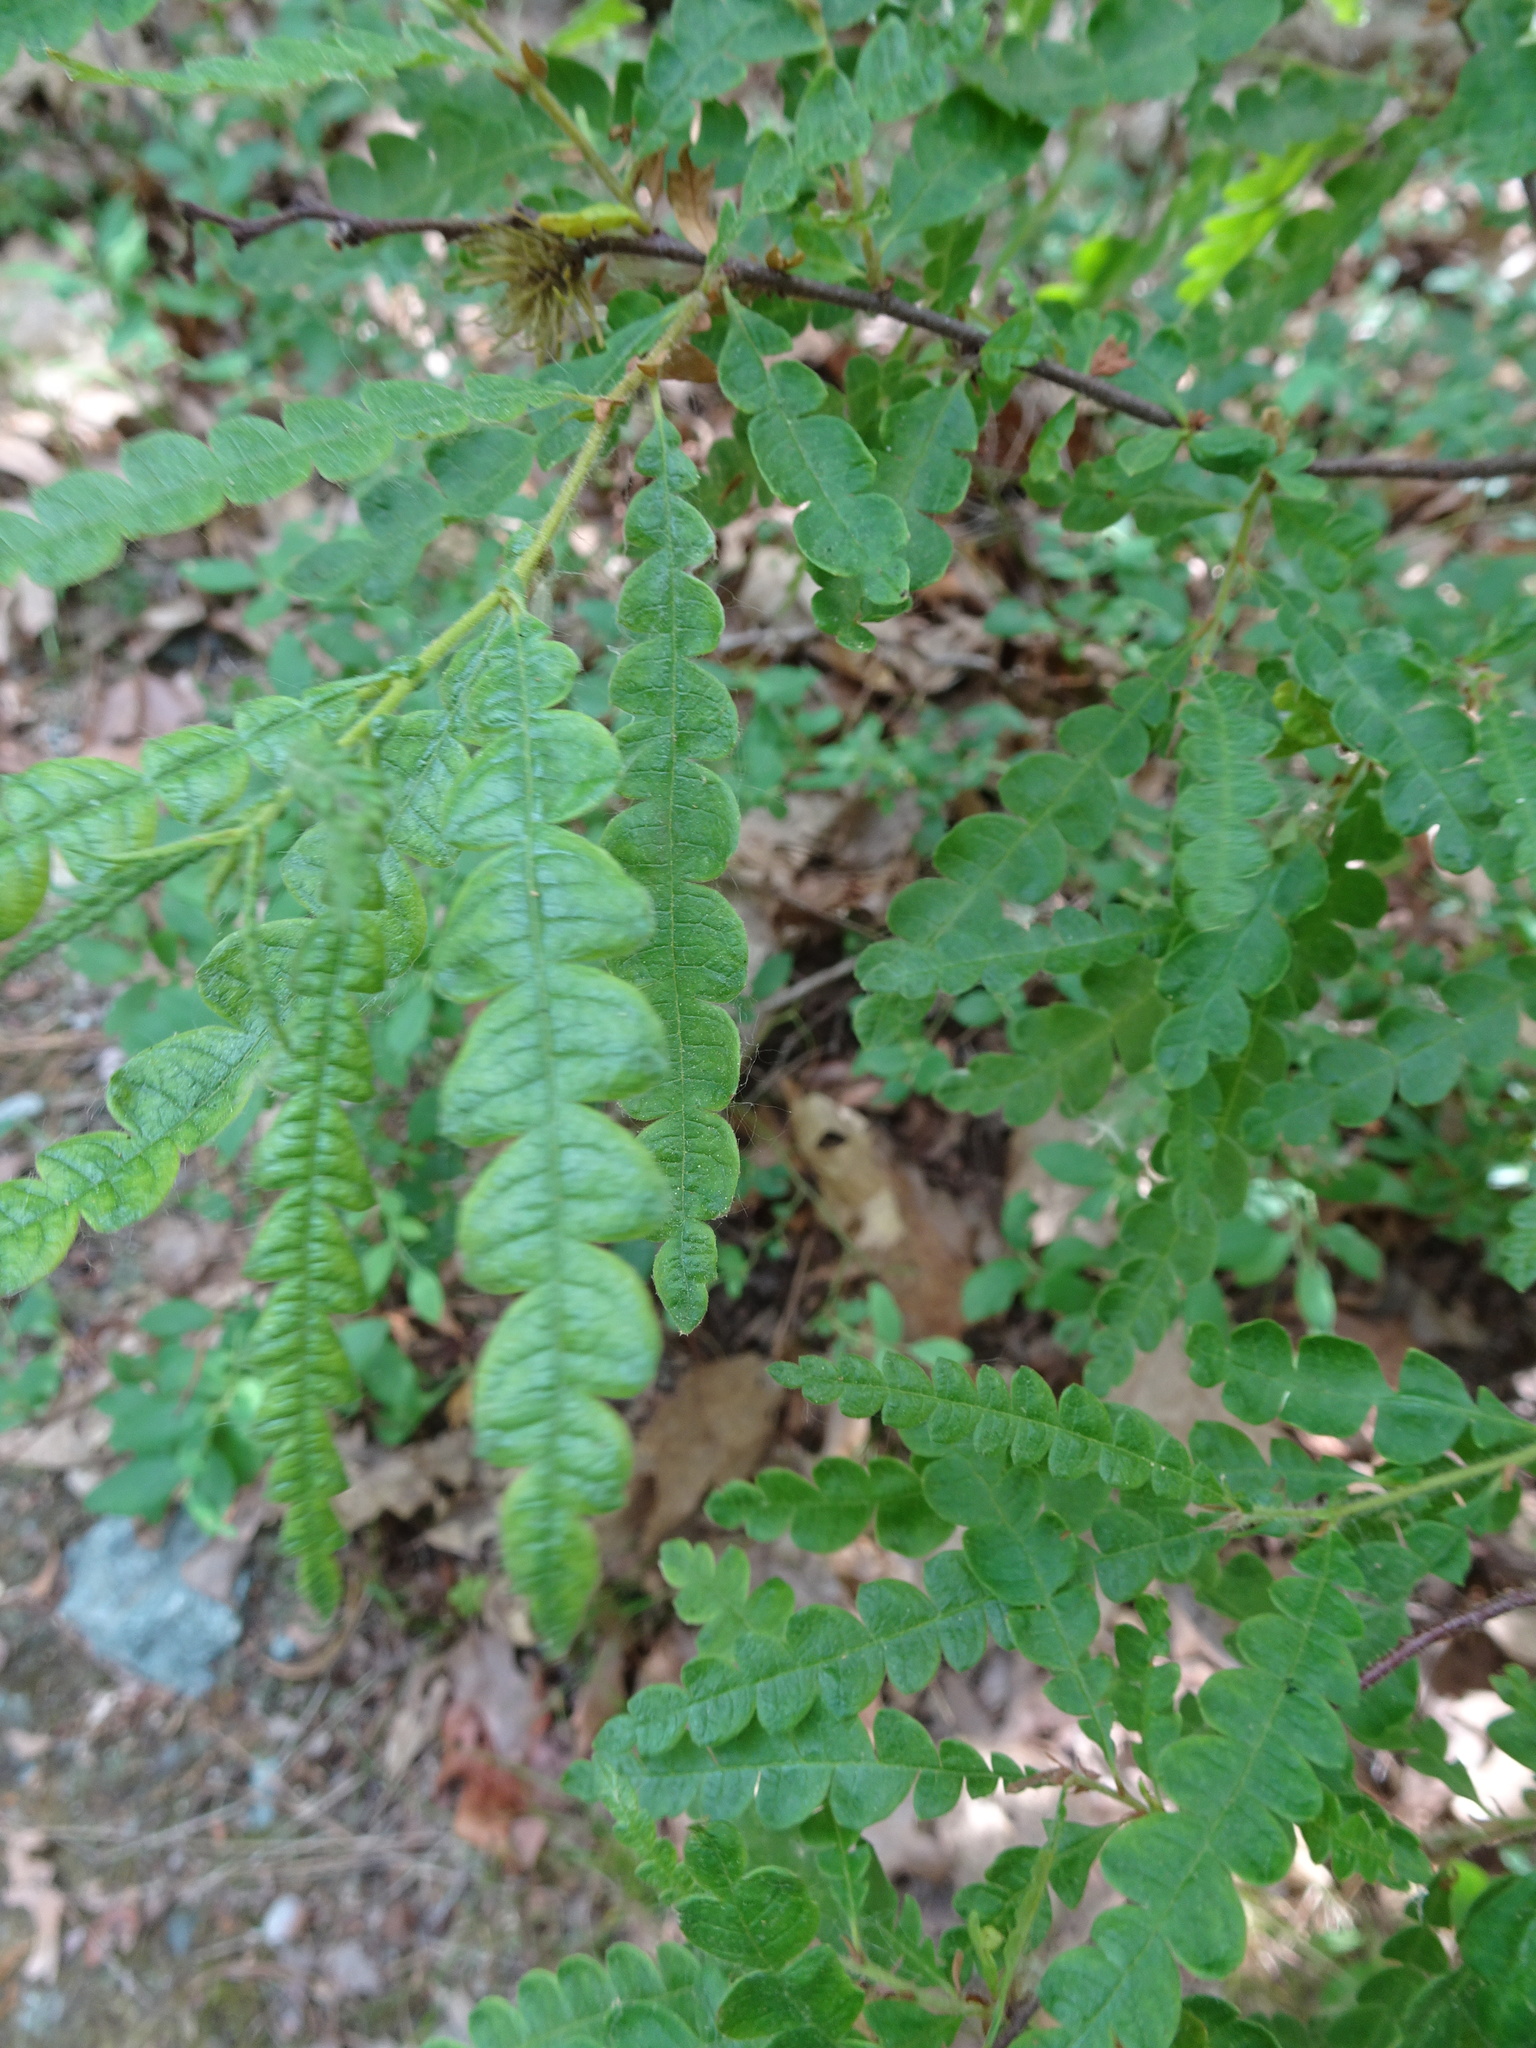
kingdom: Plantae
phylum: Tracheophyta
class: Magnoliopsida
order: Fagales
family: Myricaceae
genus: Comptonia
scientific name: Comptonia peregrina
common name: Sweet-fern
